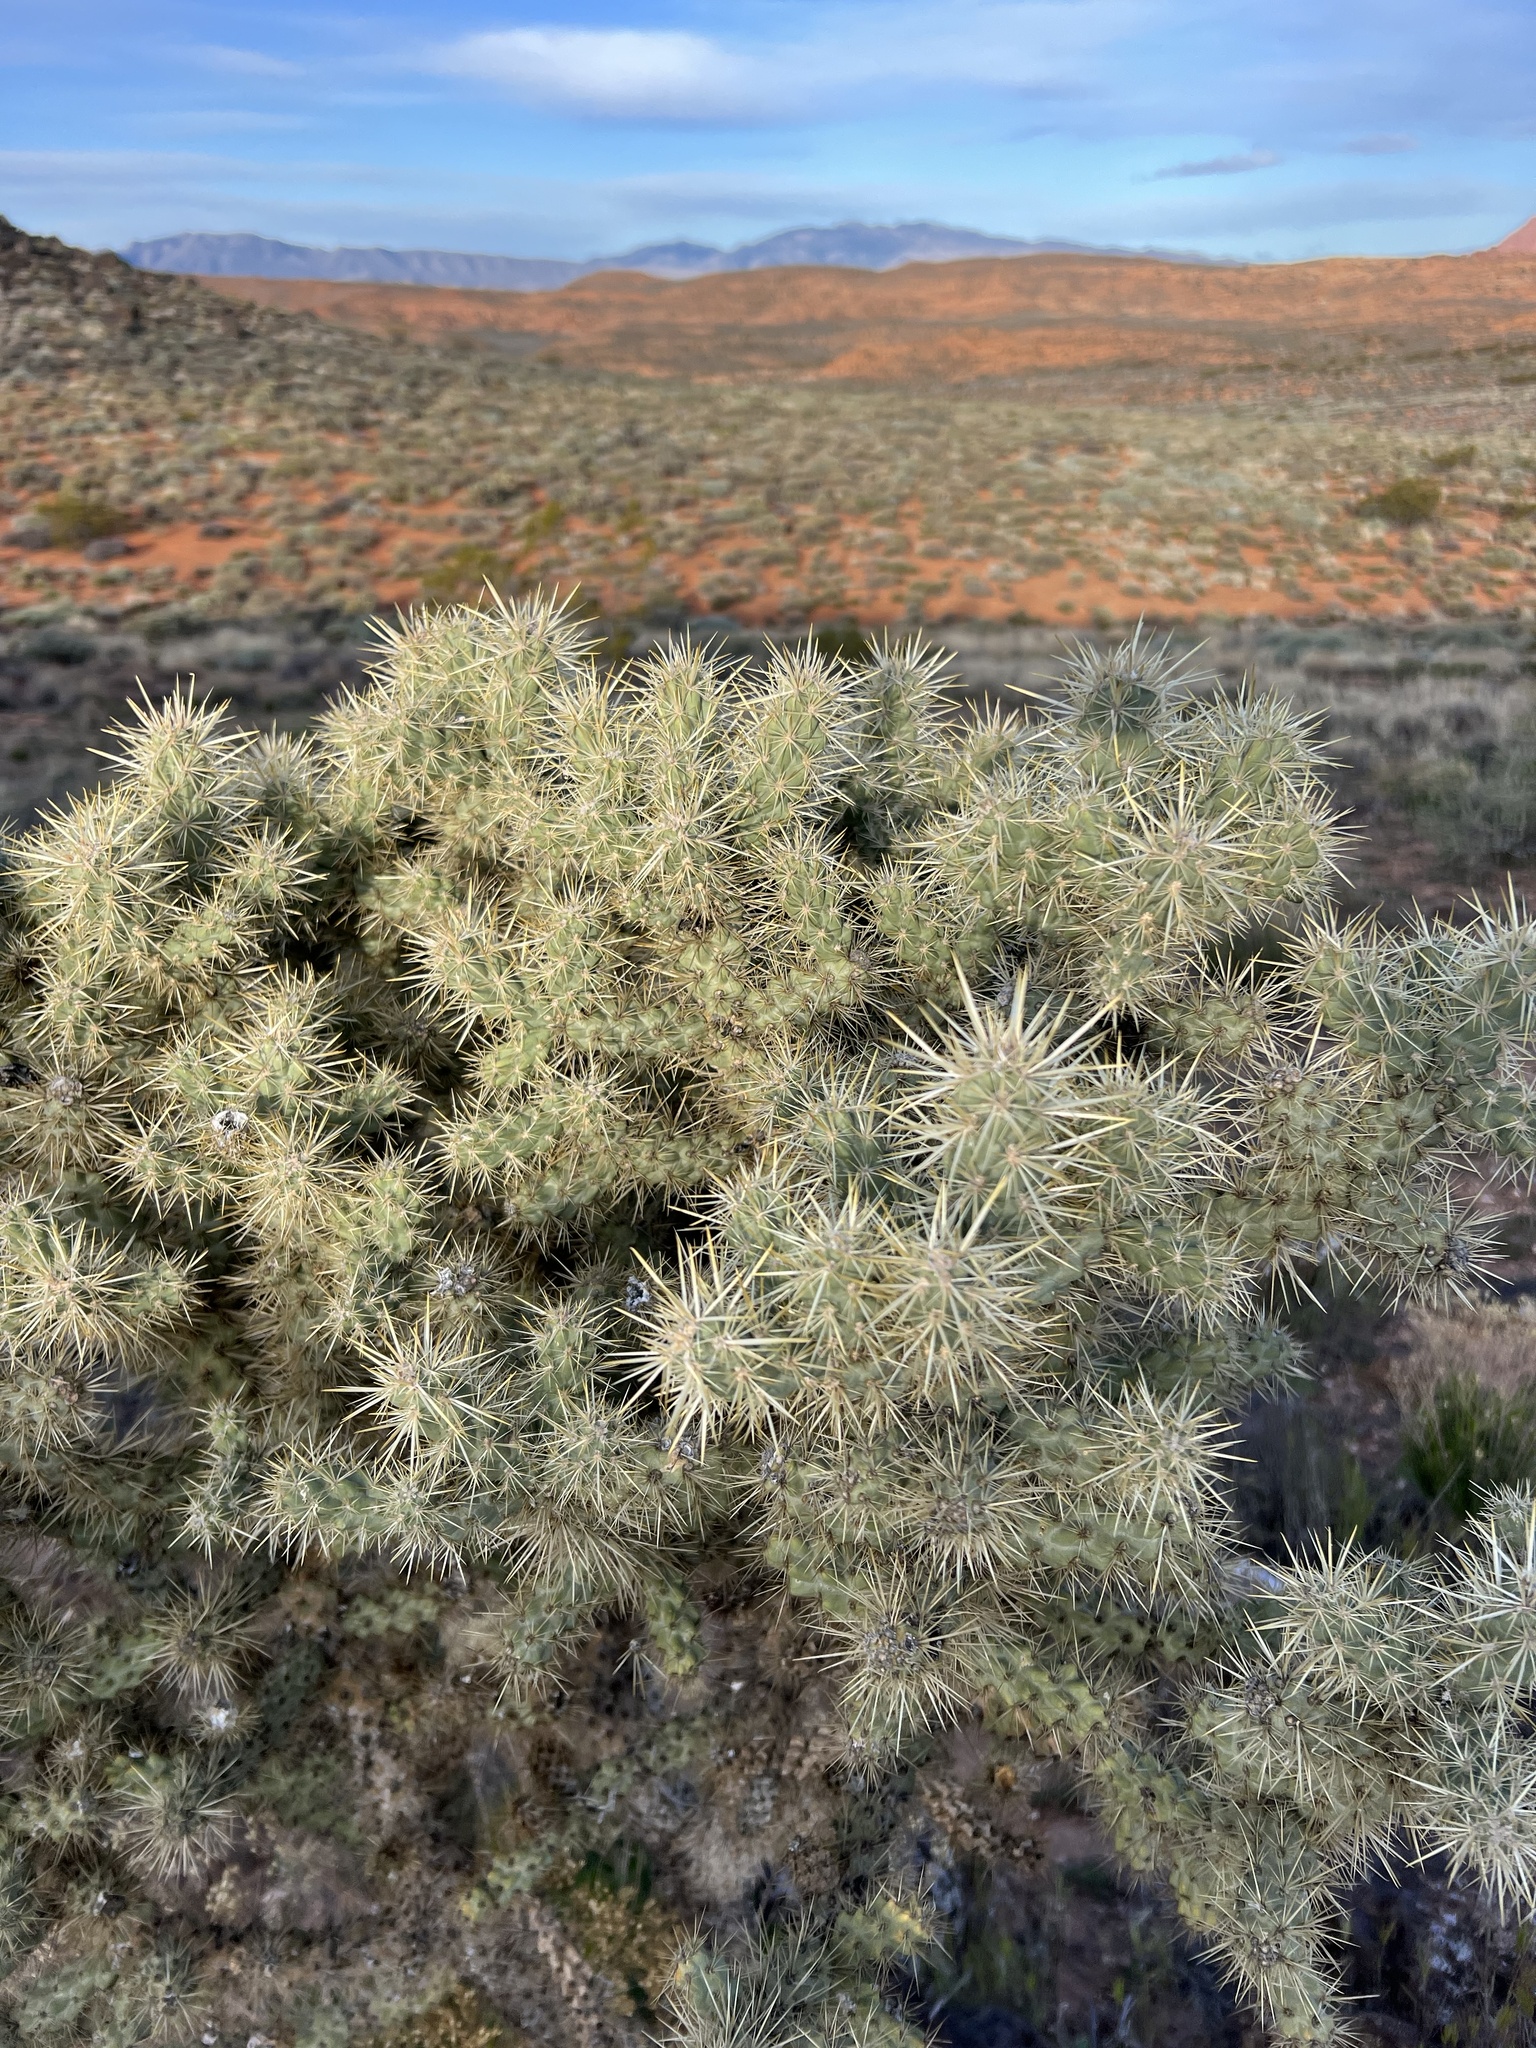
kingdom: Plantae
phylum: Tracheophyta
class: Magnoliopsida
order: Caryophyllales
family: Cactaceae
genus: Cylindropuntia
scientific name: Cylindropuntia echinocarpa
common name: Ground cholla
